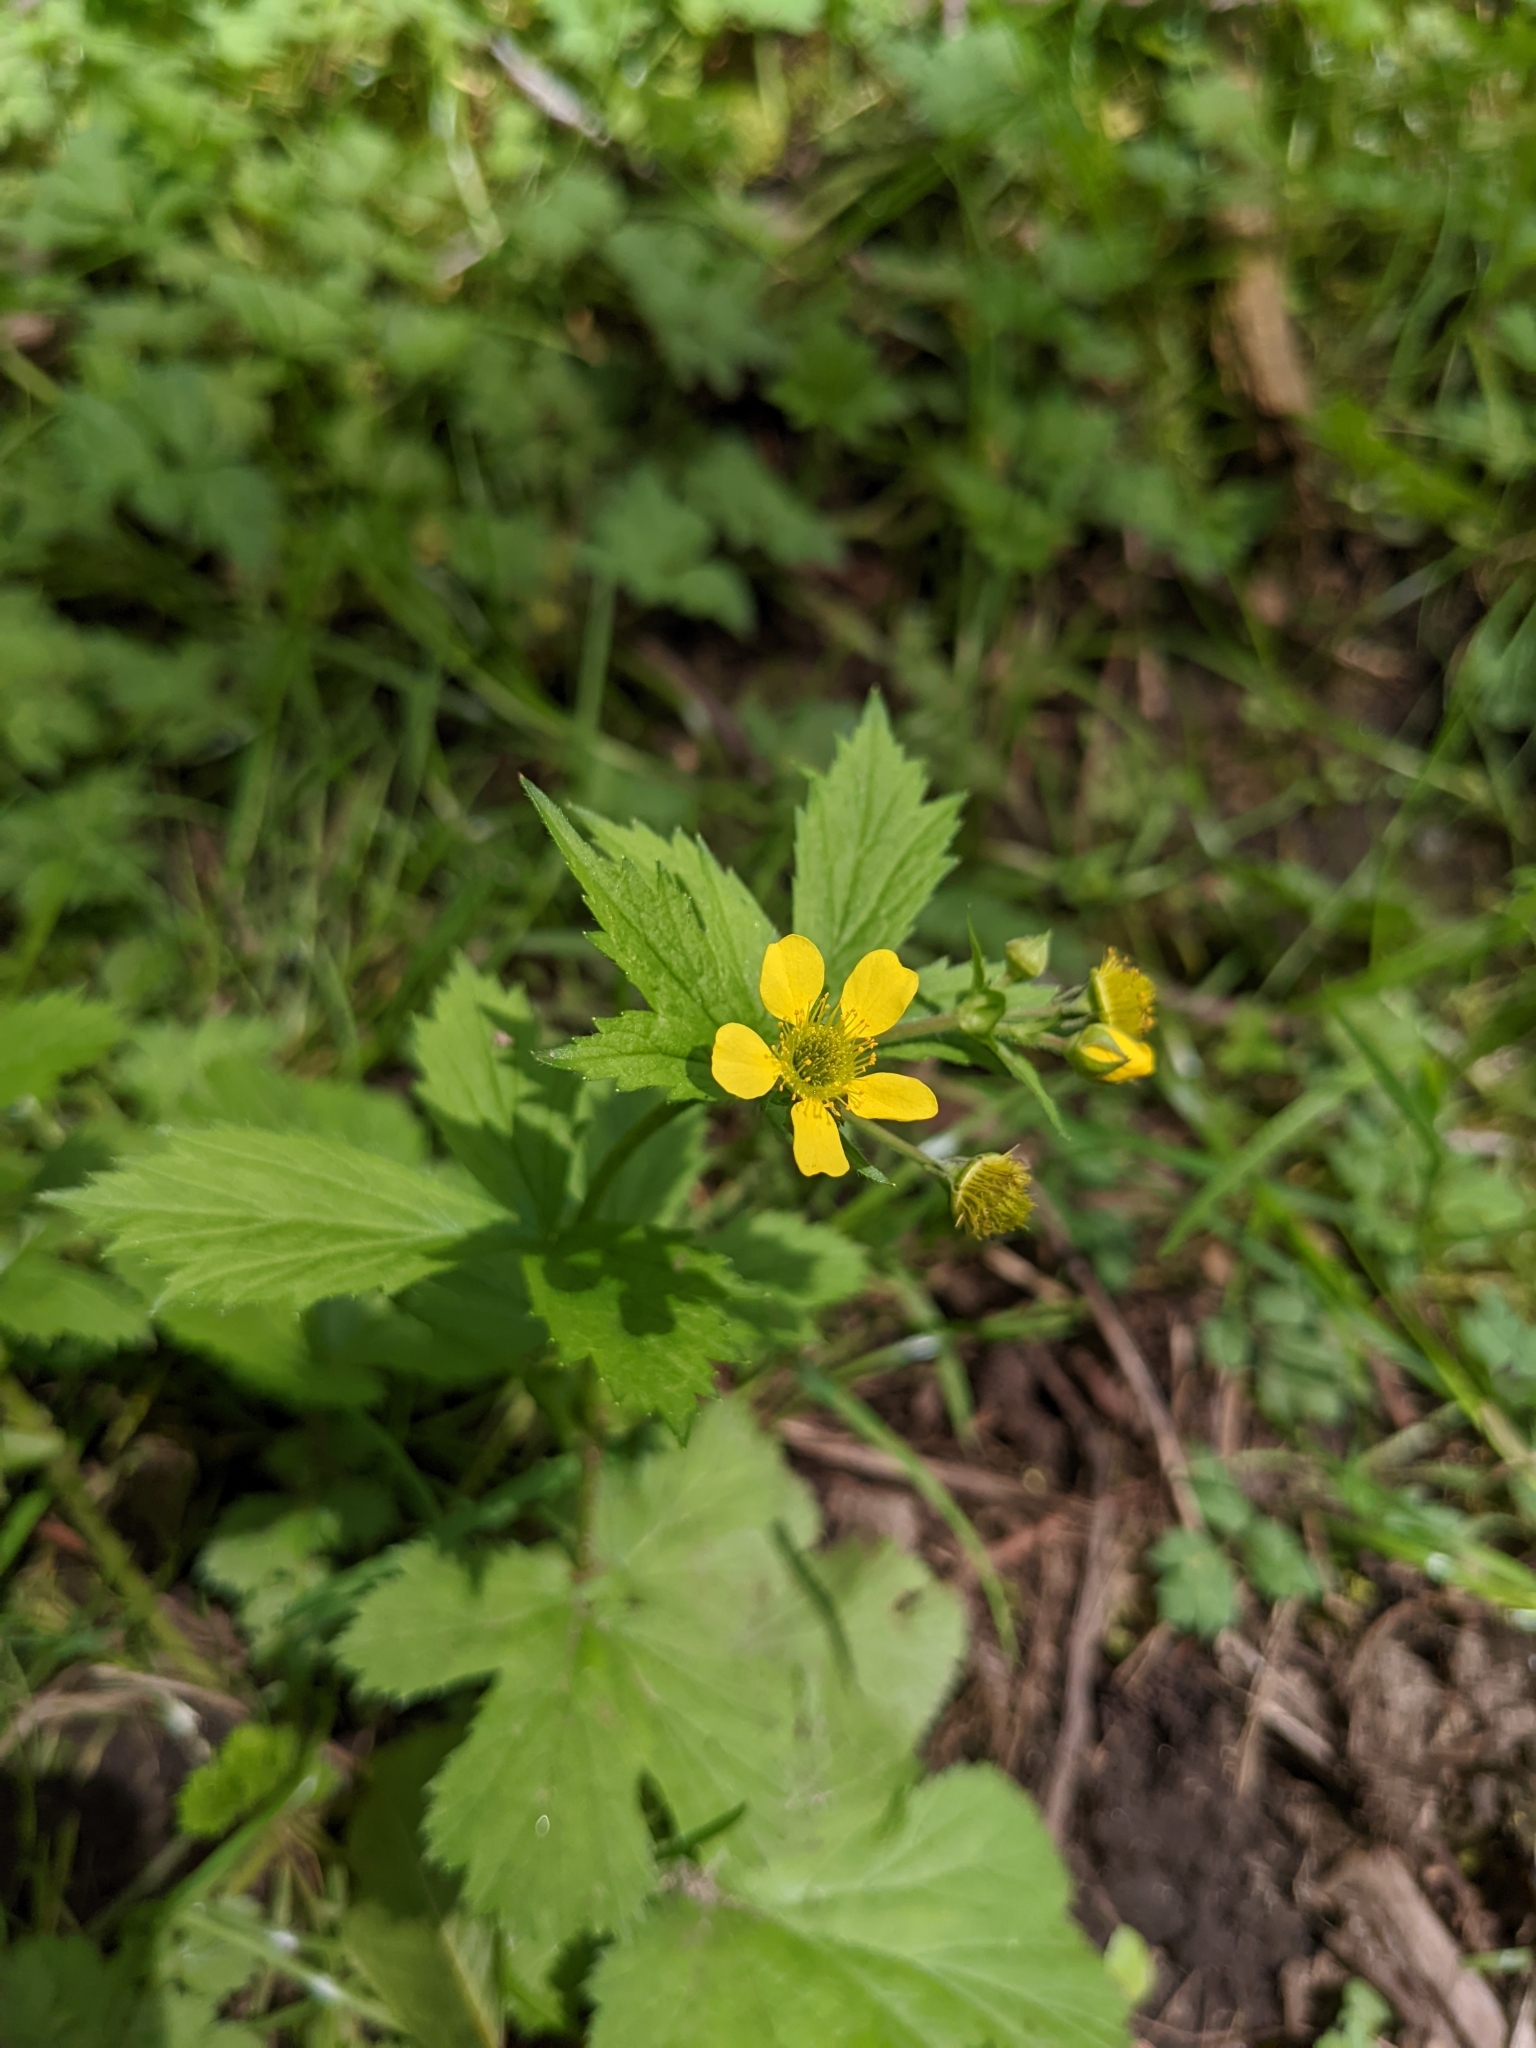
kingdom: Plantae
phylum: Tracheophyta
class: Magnoliopsida
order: Rosales
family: Rosaceae
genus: Geum
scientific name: Geum macrophyllum
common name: Large-leaved avens
